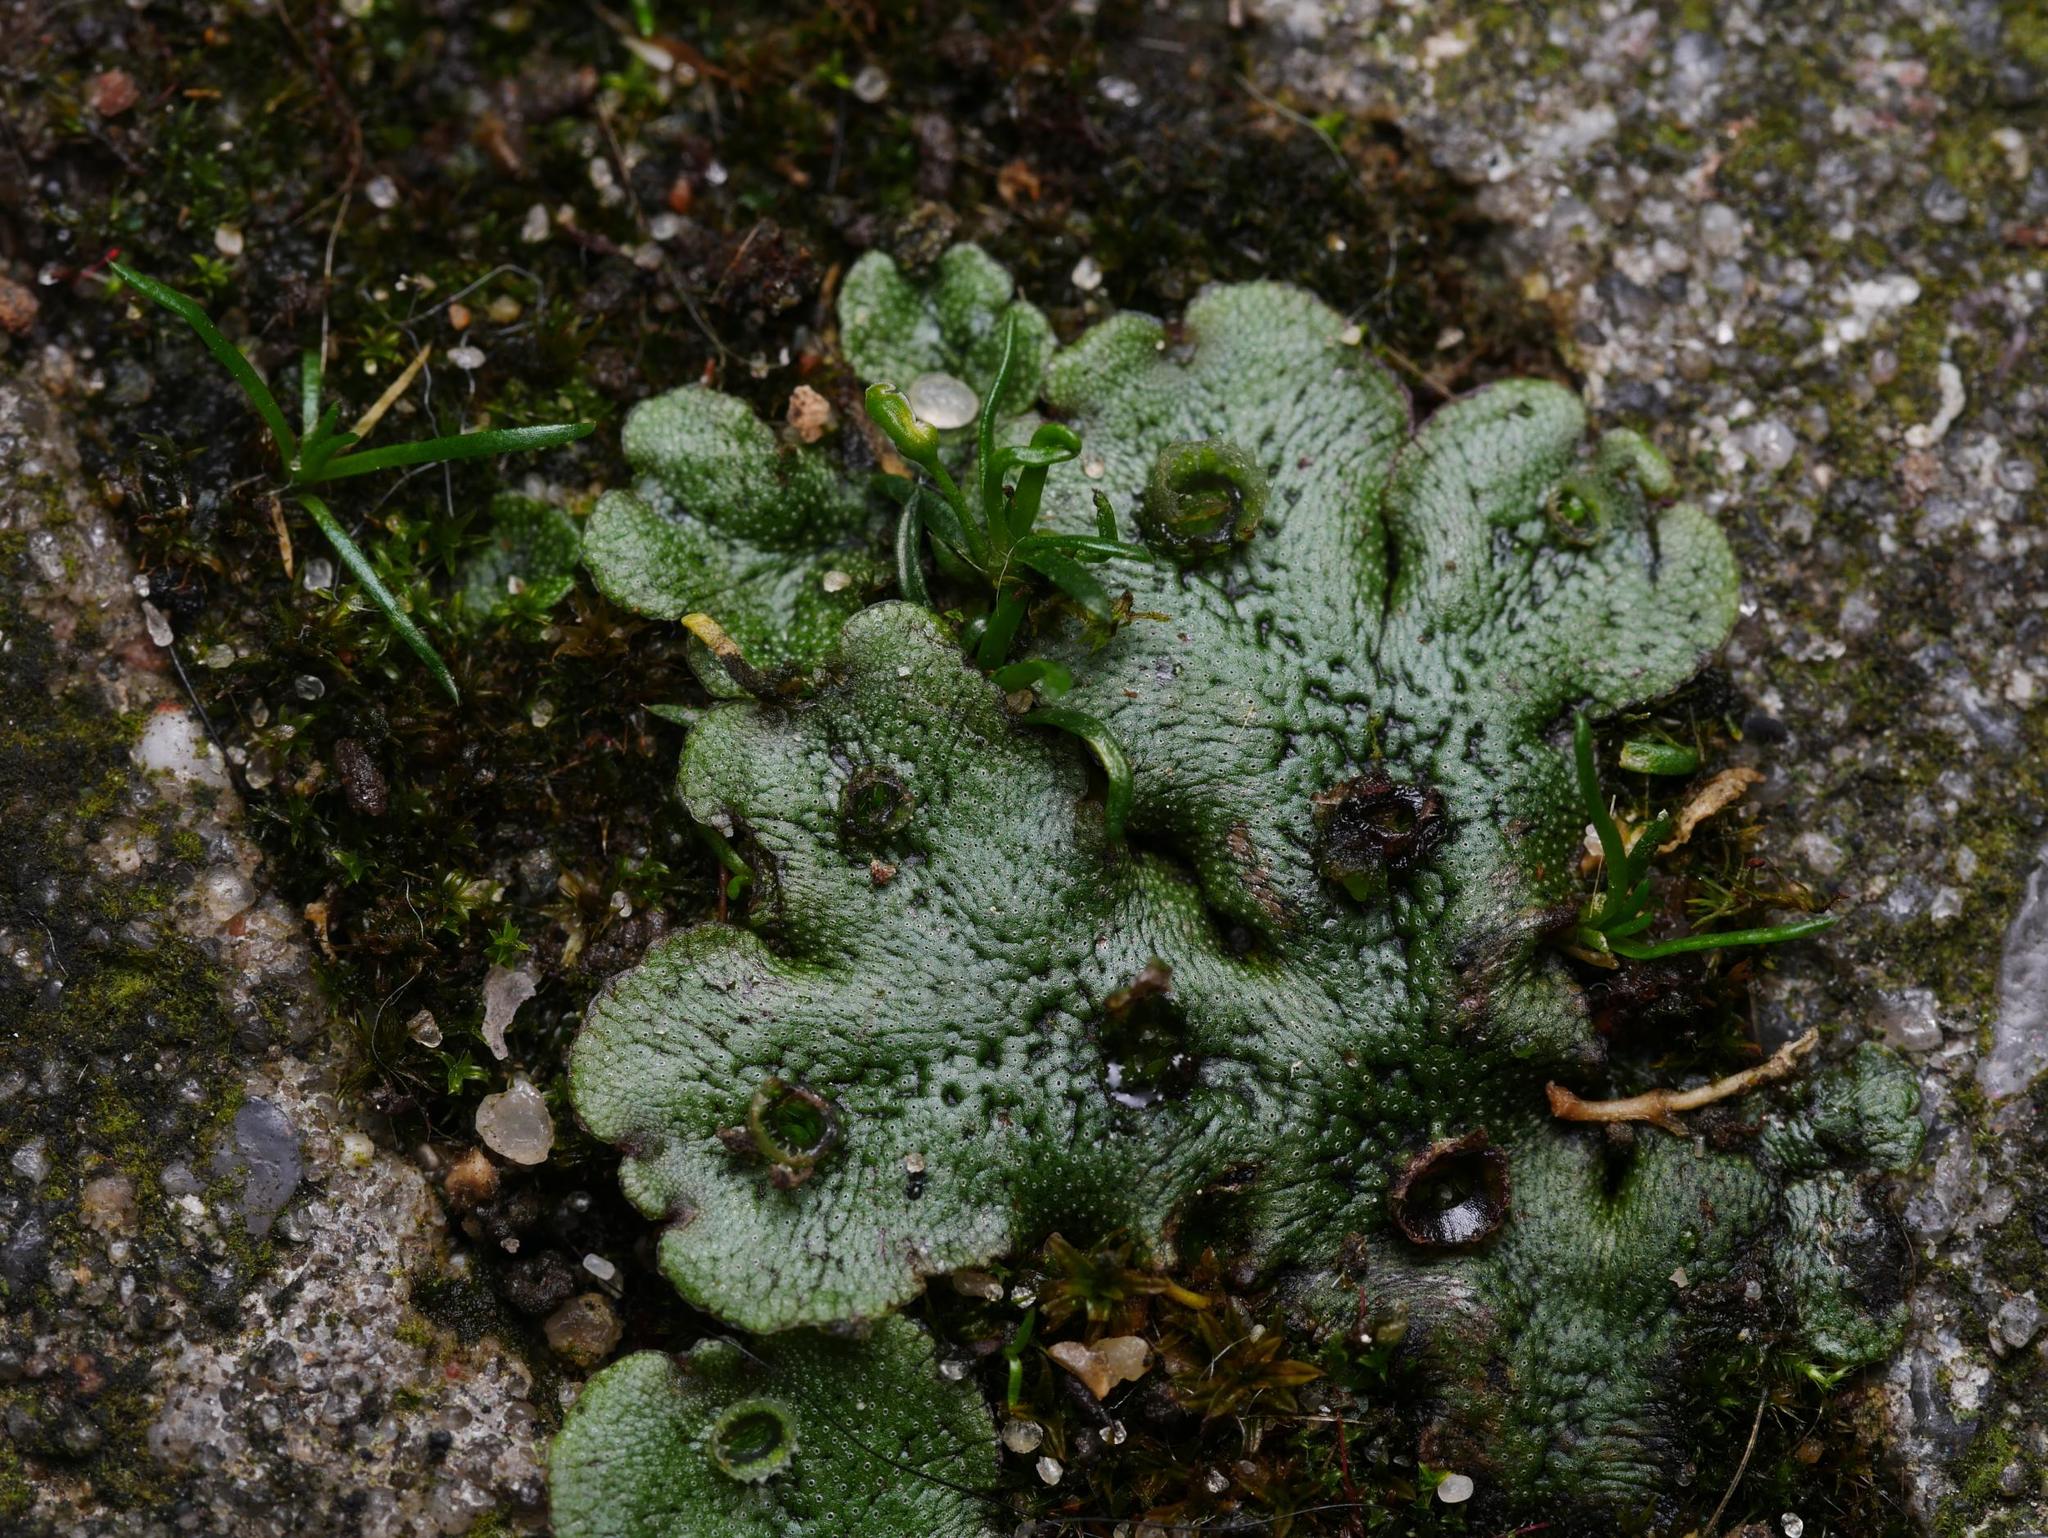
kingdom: Plantae
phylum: Marchantiophyta
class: Marchantiopsida
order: Marchantiales
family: Marchantiaceae
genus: Marchantia
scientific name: Marchantia polymorpha
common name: Common liverwort
